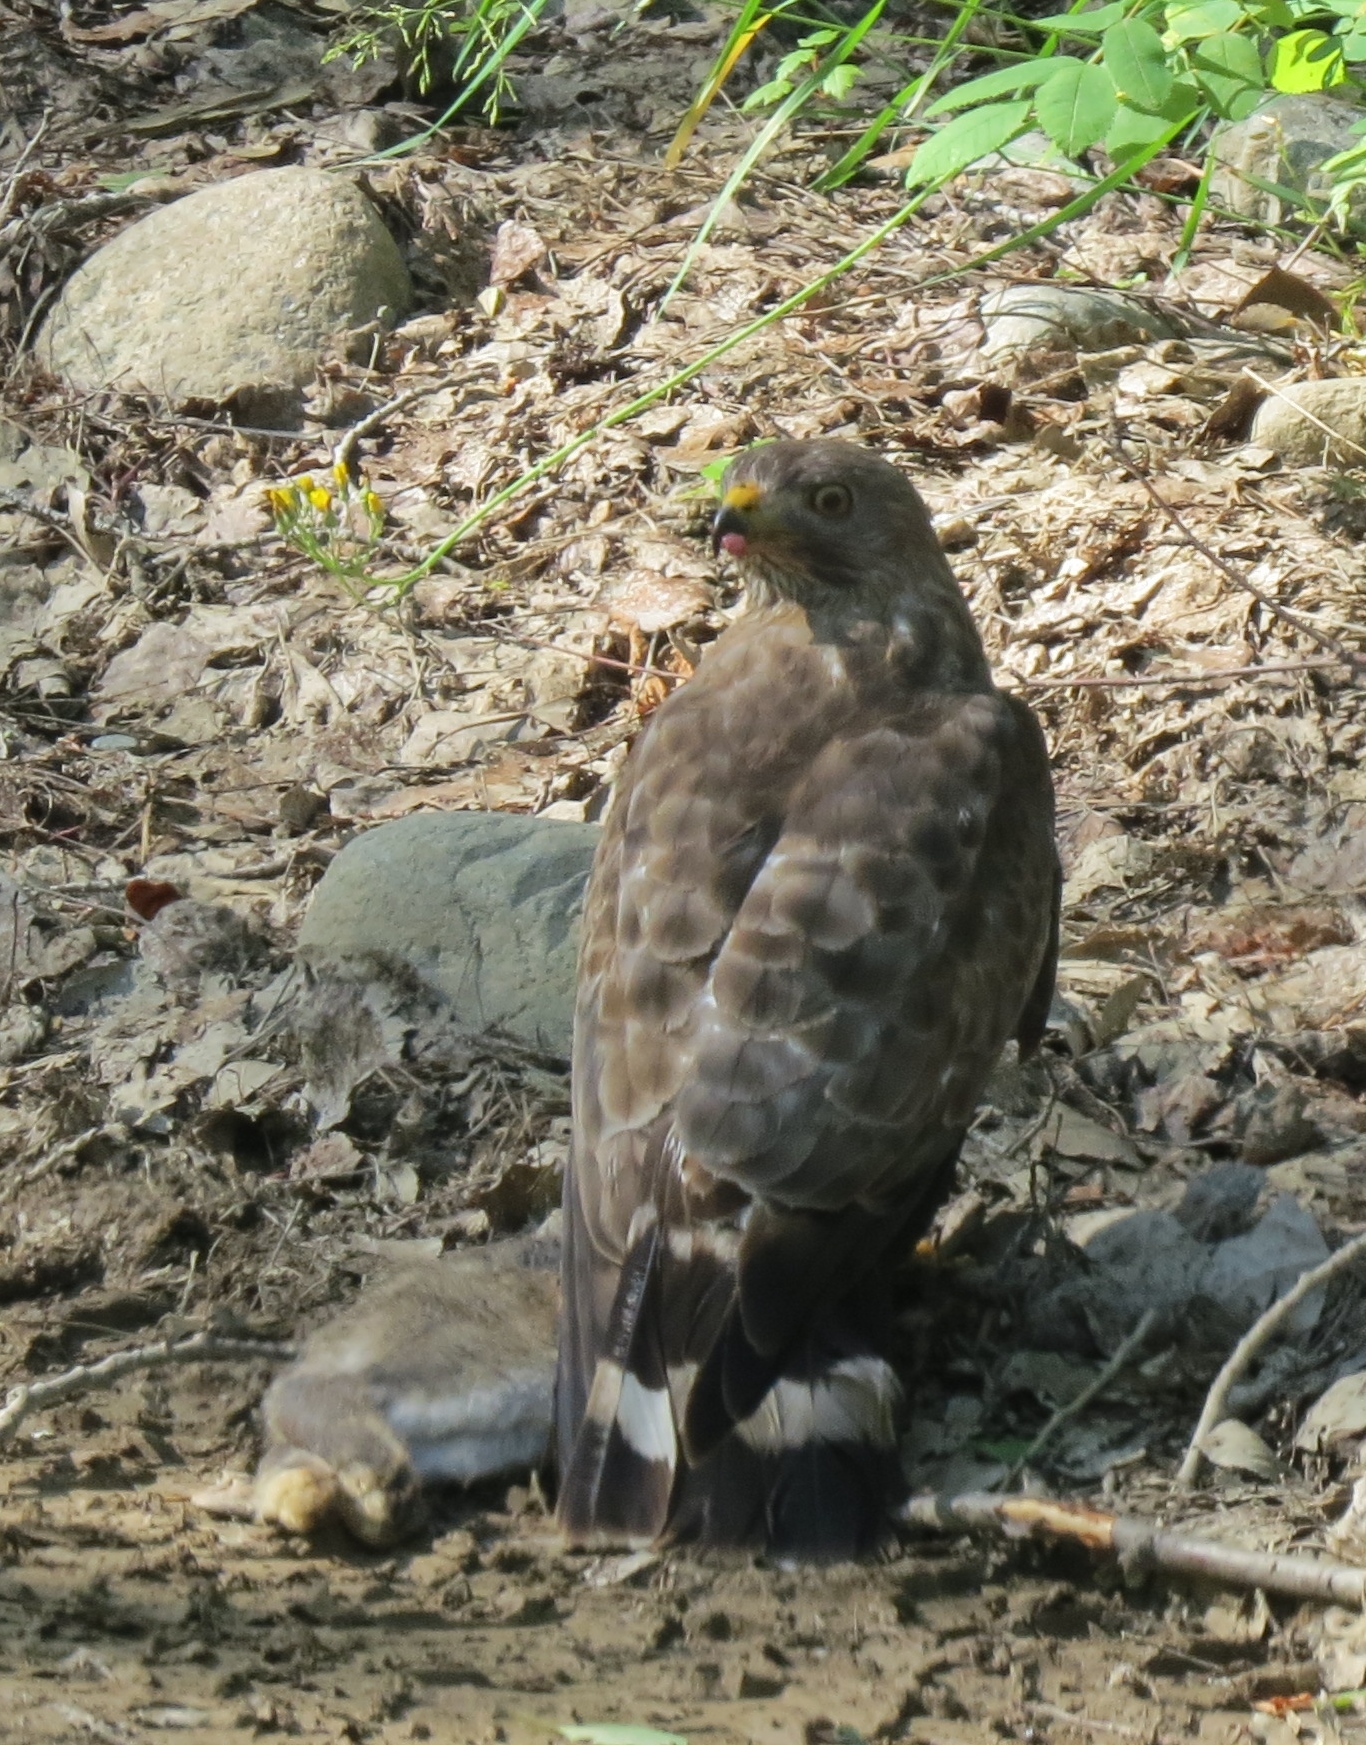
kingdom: Animalia
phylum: Chordata
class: Aves
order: Accipitriformes
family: Accipitridae
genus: Buteo
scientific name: Buteo platypterus
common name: Broad-winged hawk
